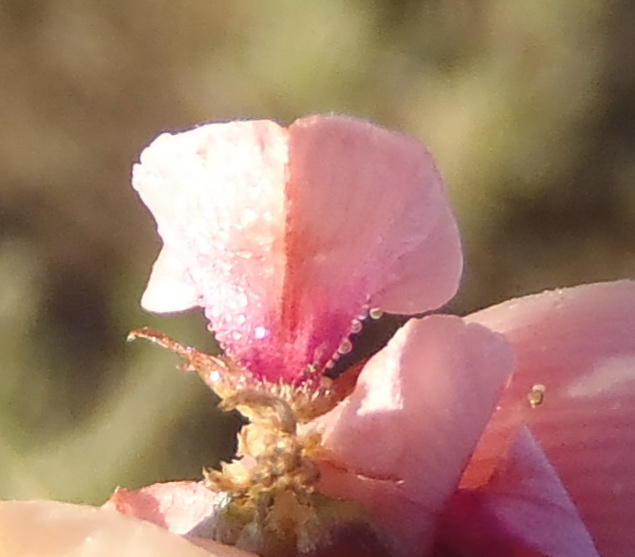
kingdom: Plantae
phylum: Tracheophyta
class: Magnoliopsida
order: Fabales
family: Fabaceae
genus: Indigofera
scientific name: Indigofera alternans
